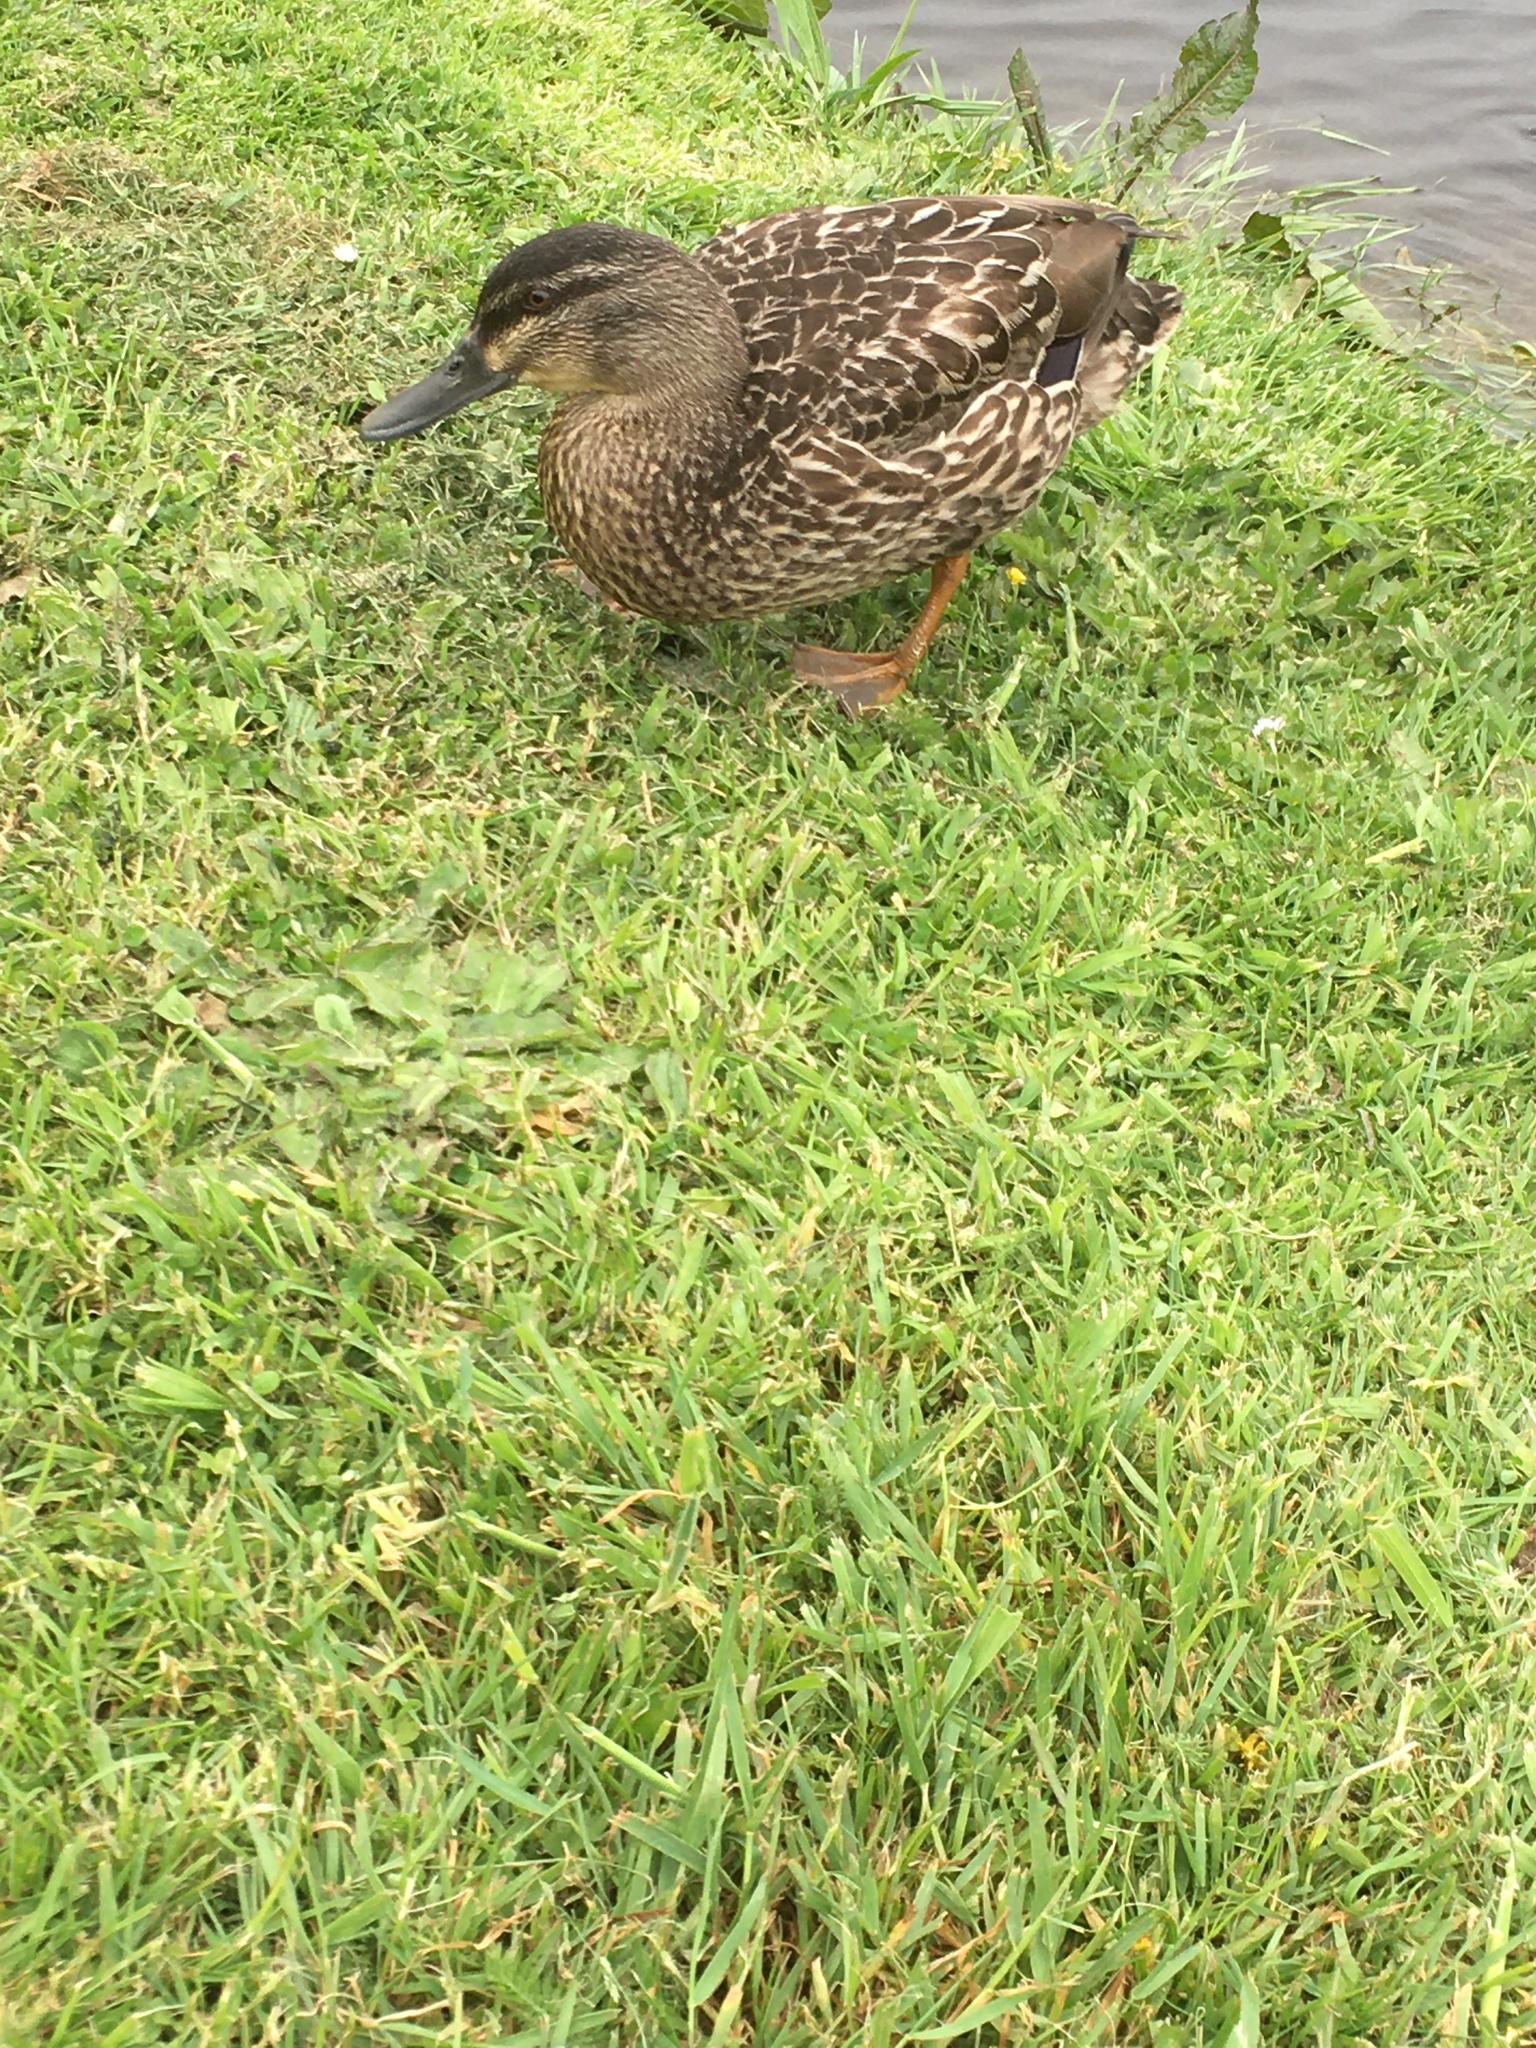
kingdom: Animalia
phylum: Chordata
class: Aves
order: Anseriformes
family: Anatidae
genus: Anas
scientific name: Anas
